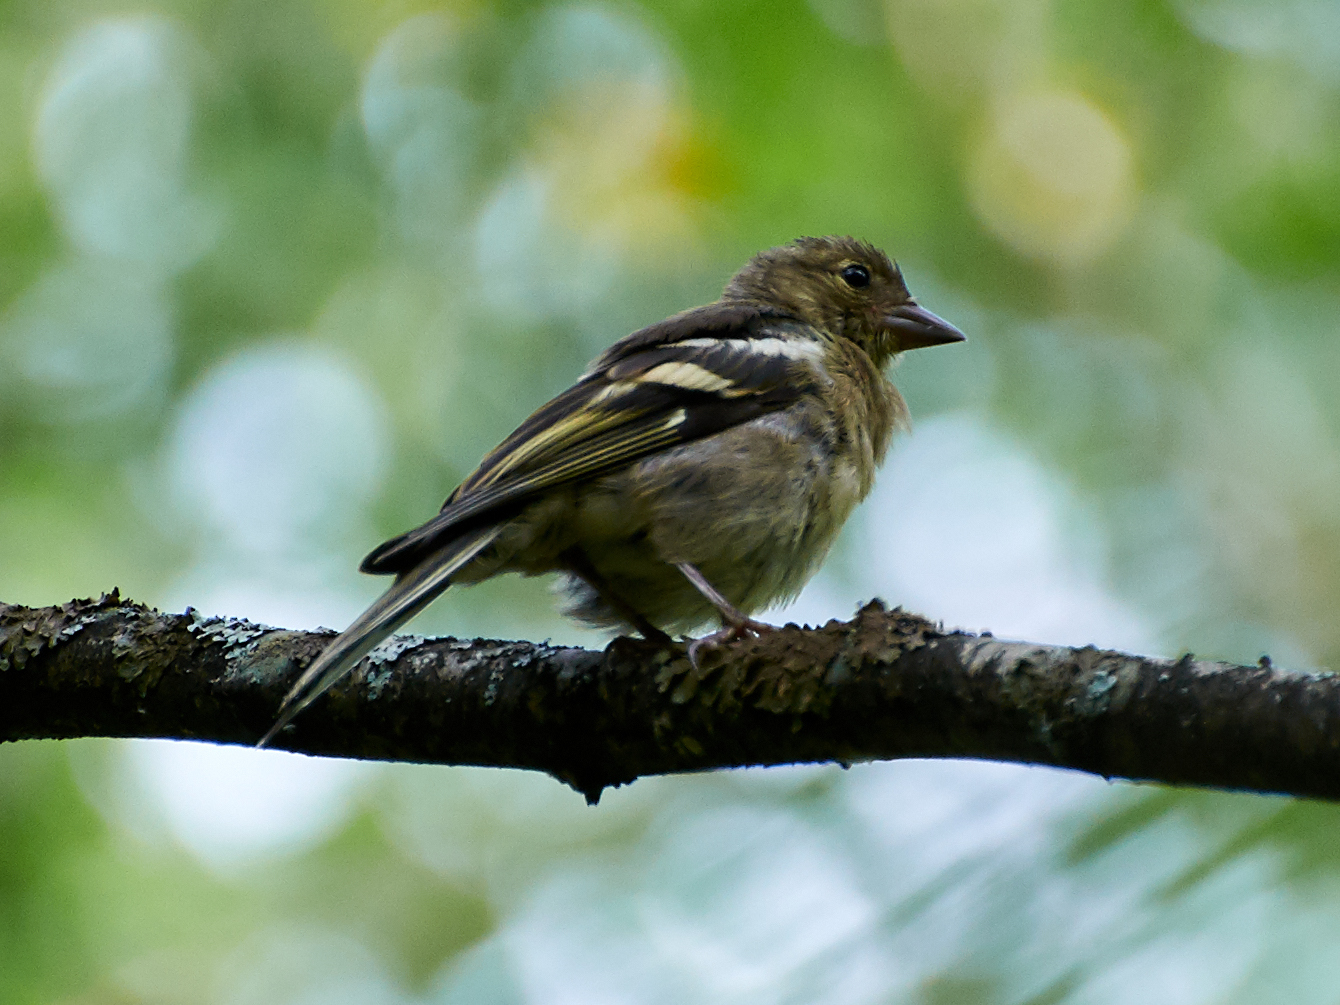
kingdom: Animalia
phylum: Chordata
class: Aves
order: Passeriformes
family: Fringillidae
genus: Fringilla
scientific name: Fringilla coelebs
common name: Common chaffinch
